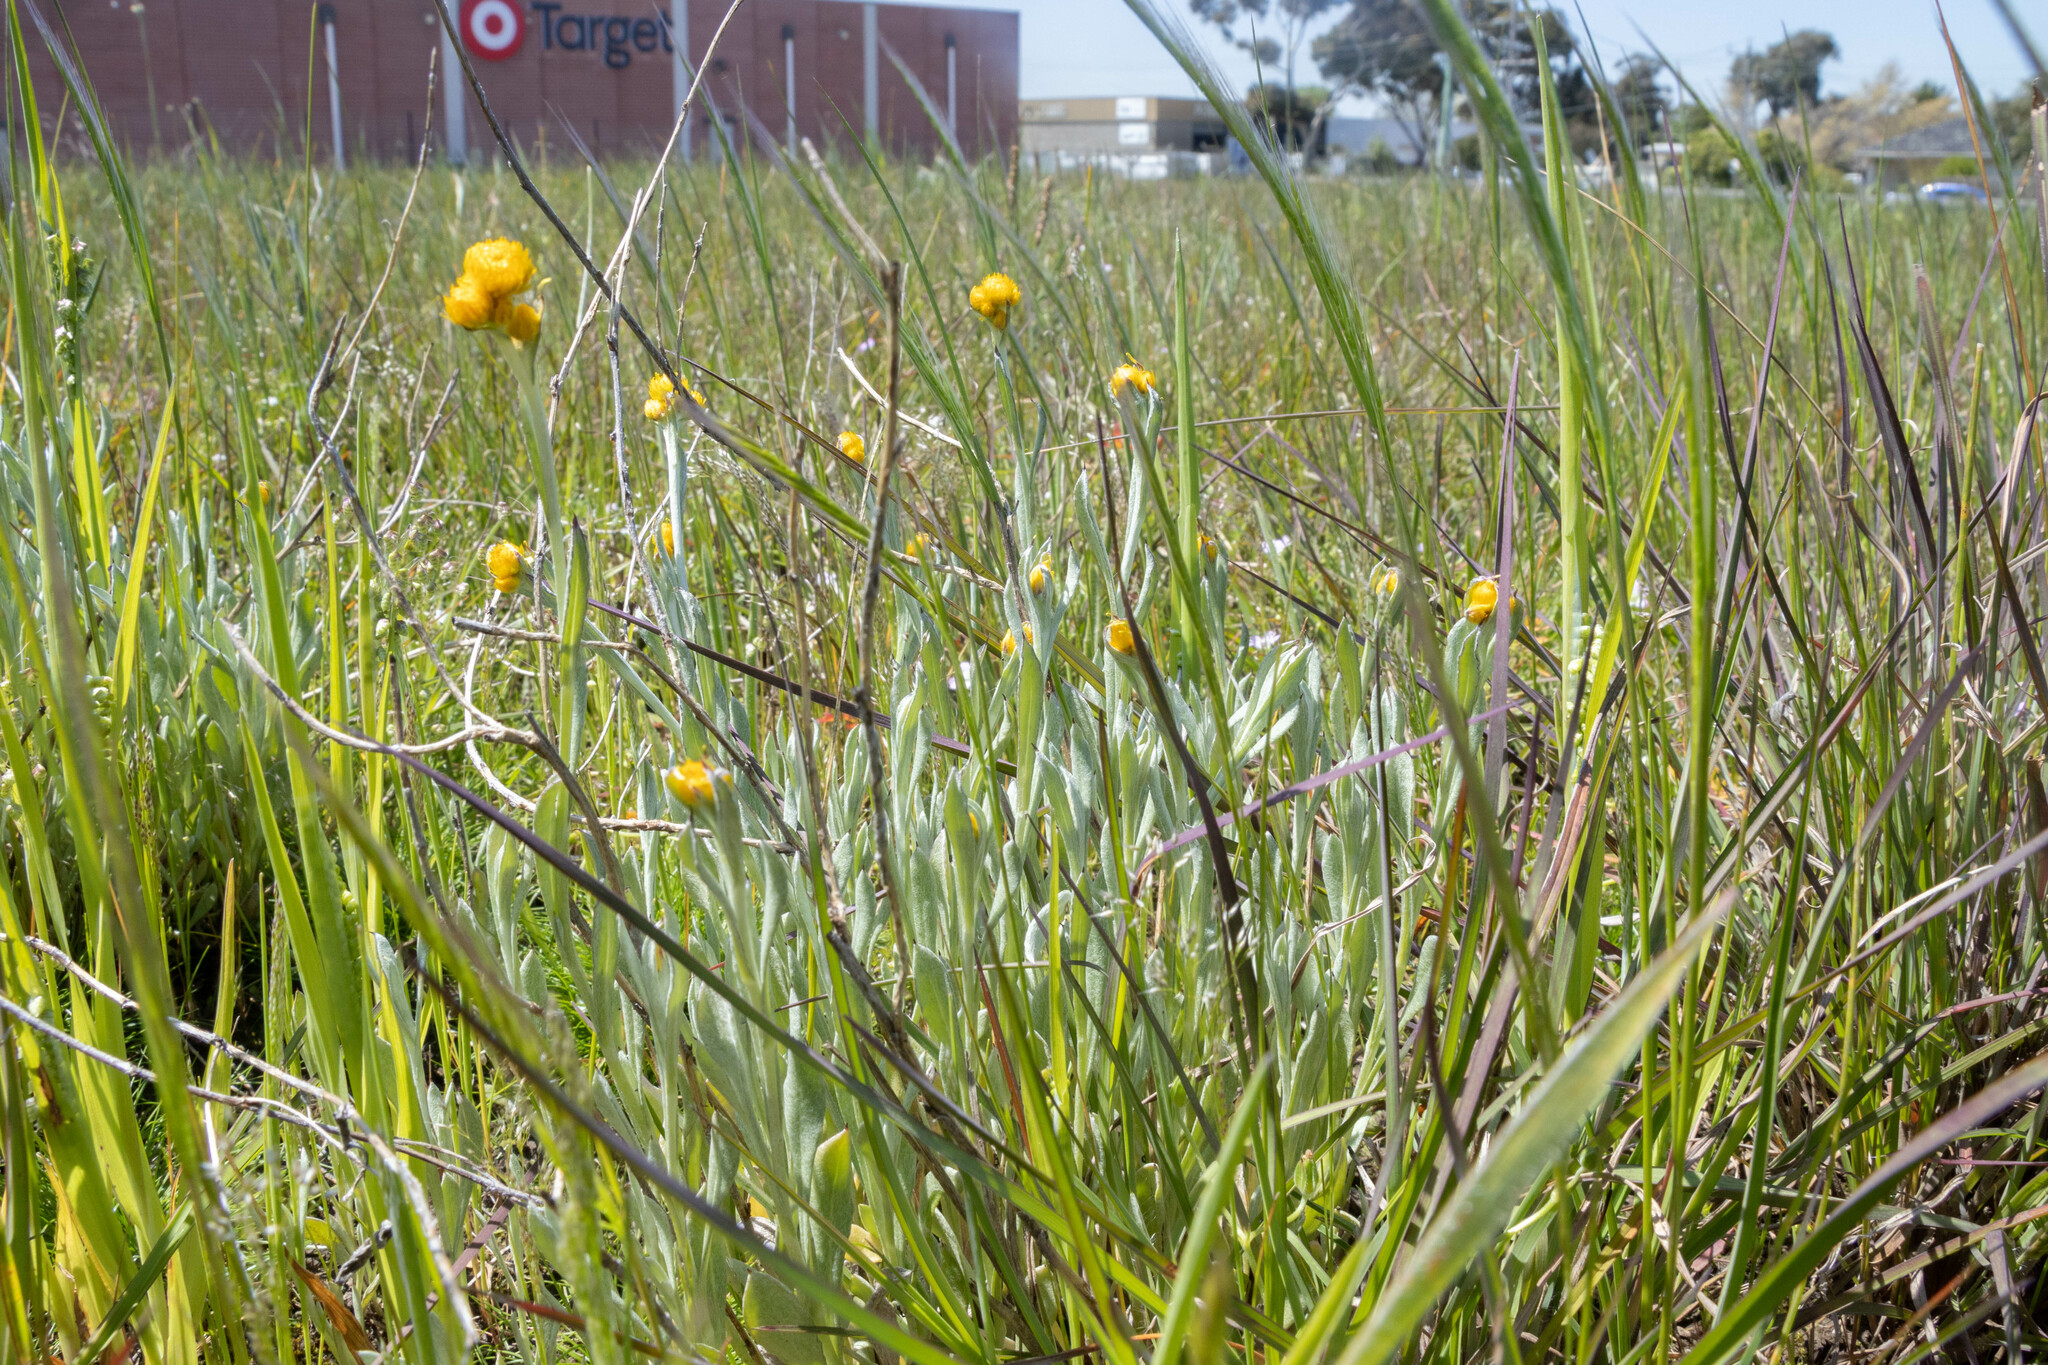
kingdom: Plantae
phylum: Tracheophyta
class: Magnoliopsida
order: Asterales
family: Asteraceae
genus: Chrysocephalum
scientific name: Chrysocephalum apiculatum
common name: Common everlasting
